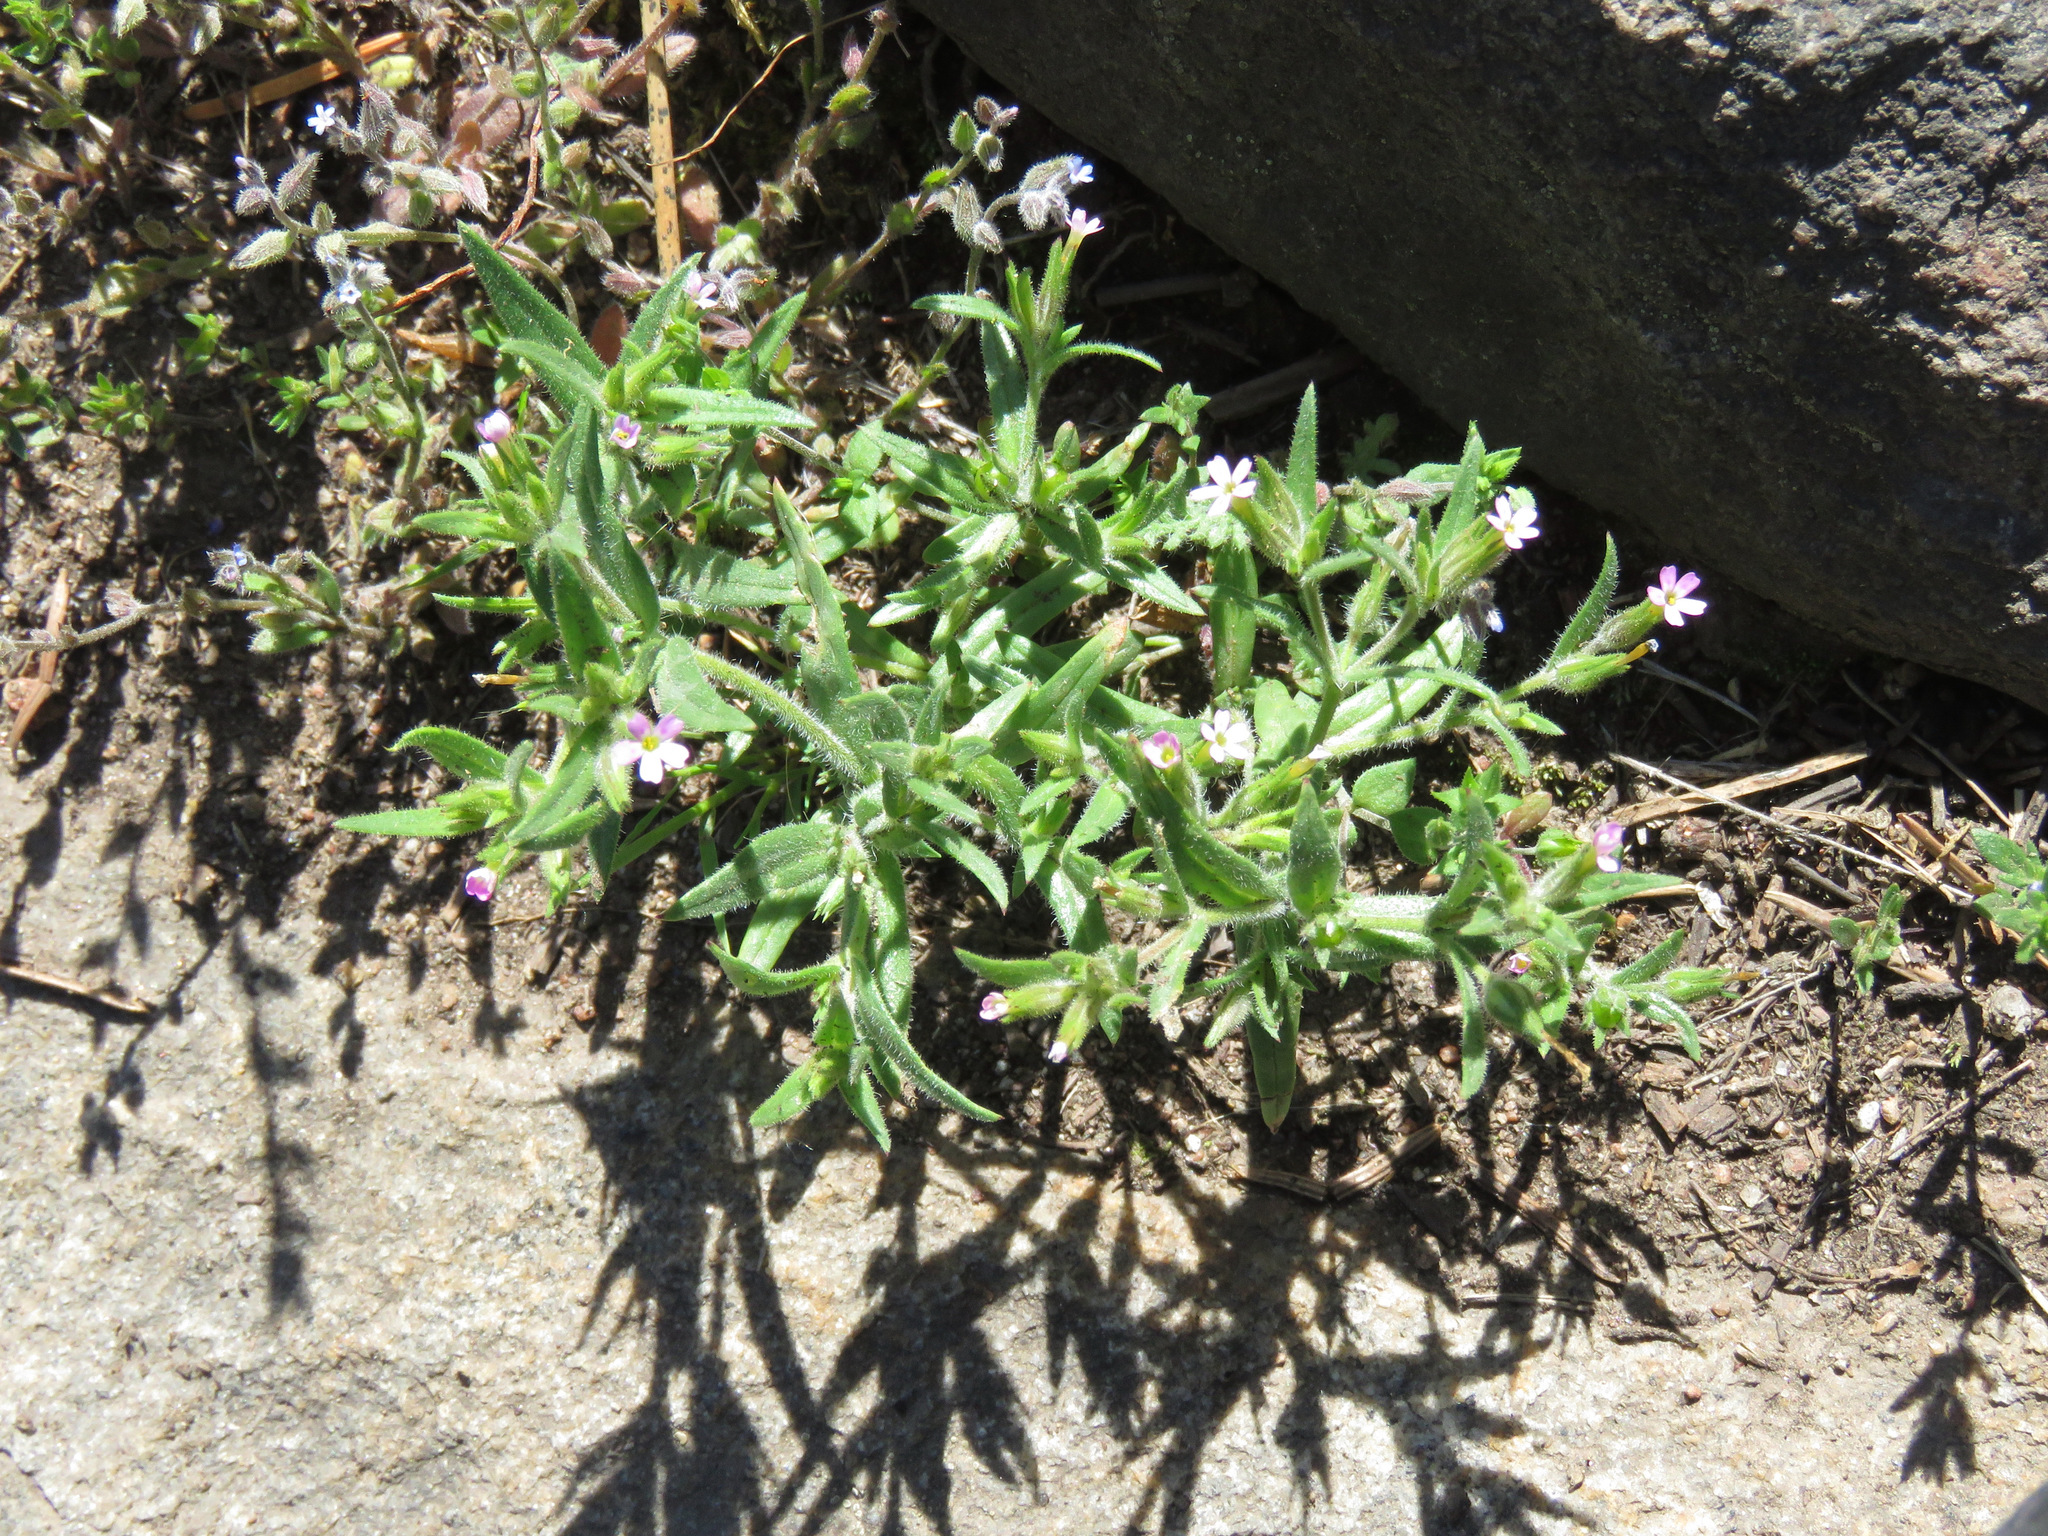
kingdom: Plantae
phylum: Tracheophyta
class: Magnoliopsida
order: Ericales
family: Polemoniaceae
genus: Phlox
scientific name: Phlox gracilis
